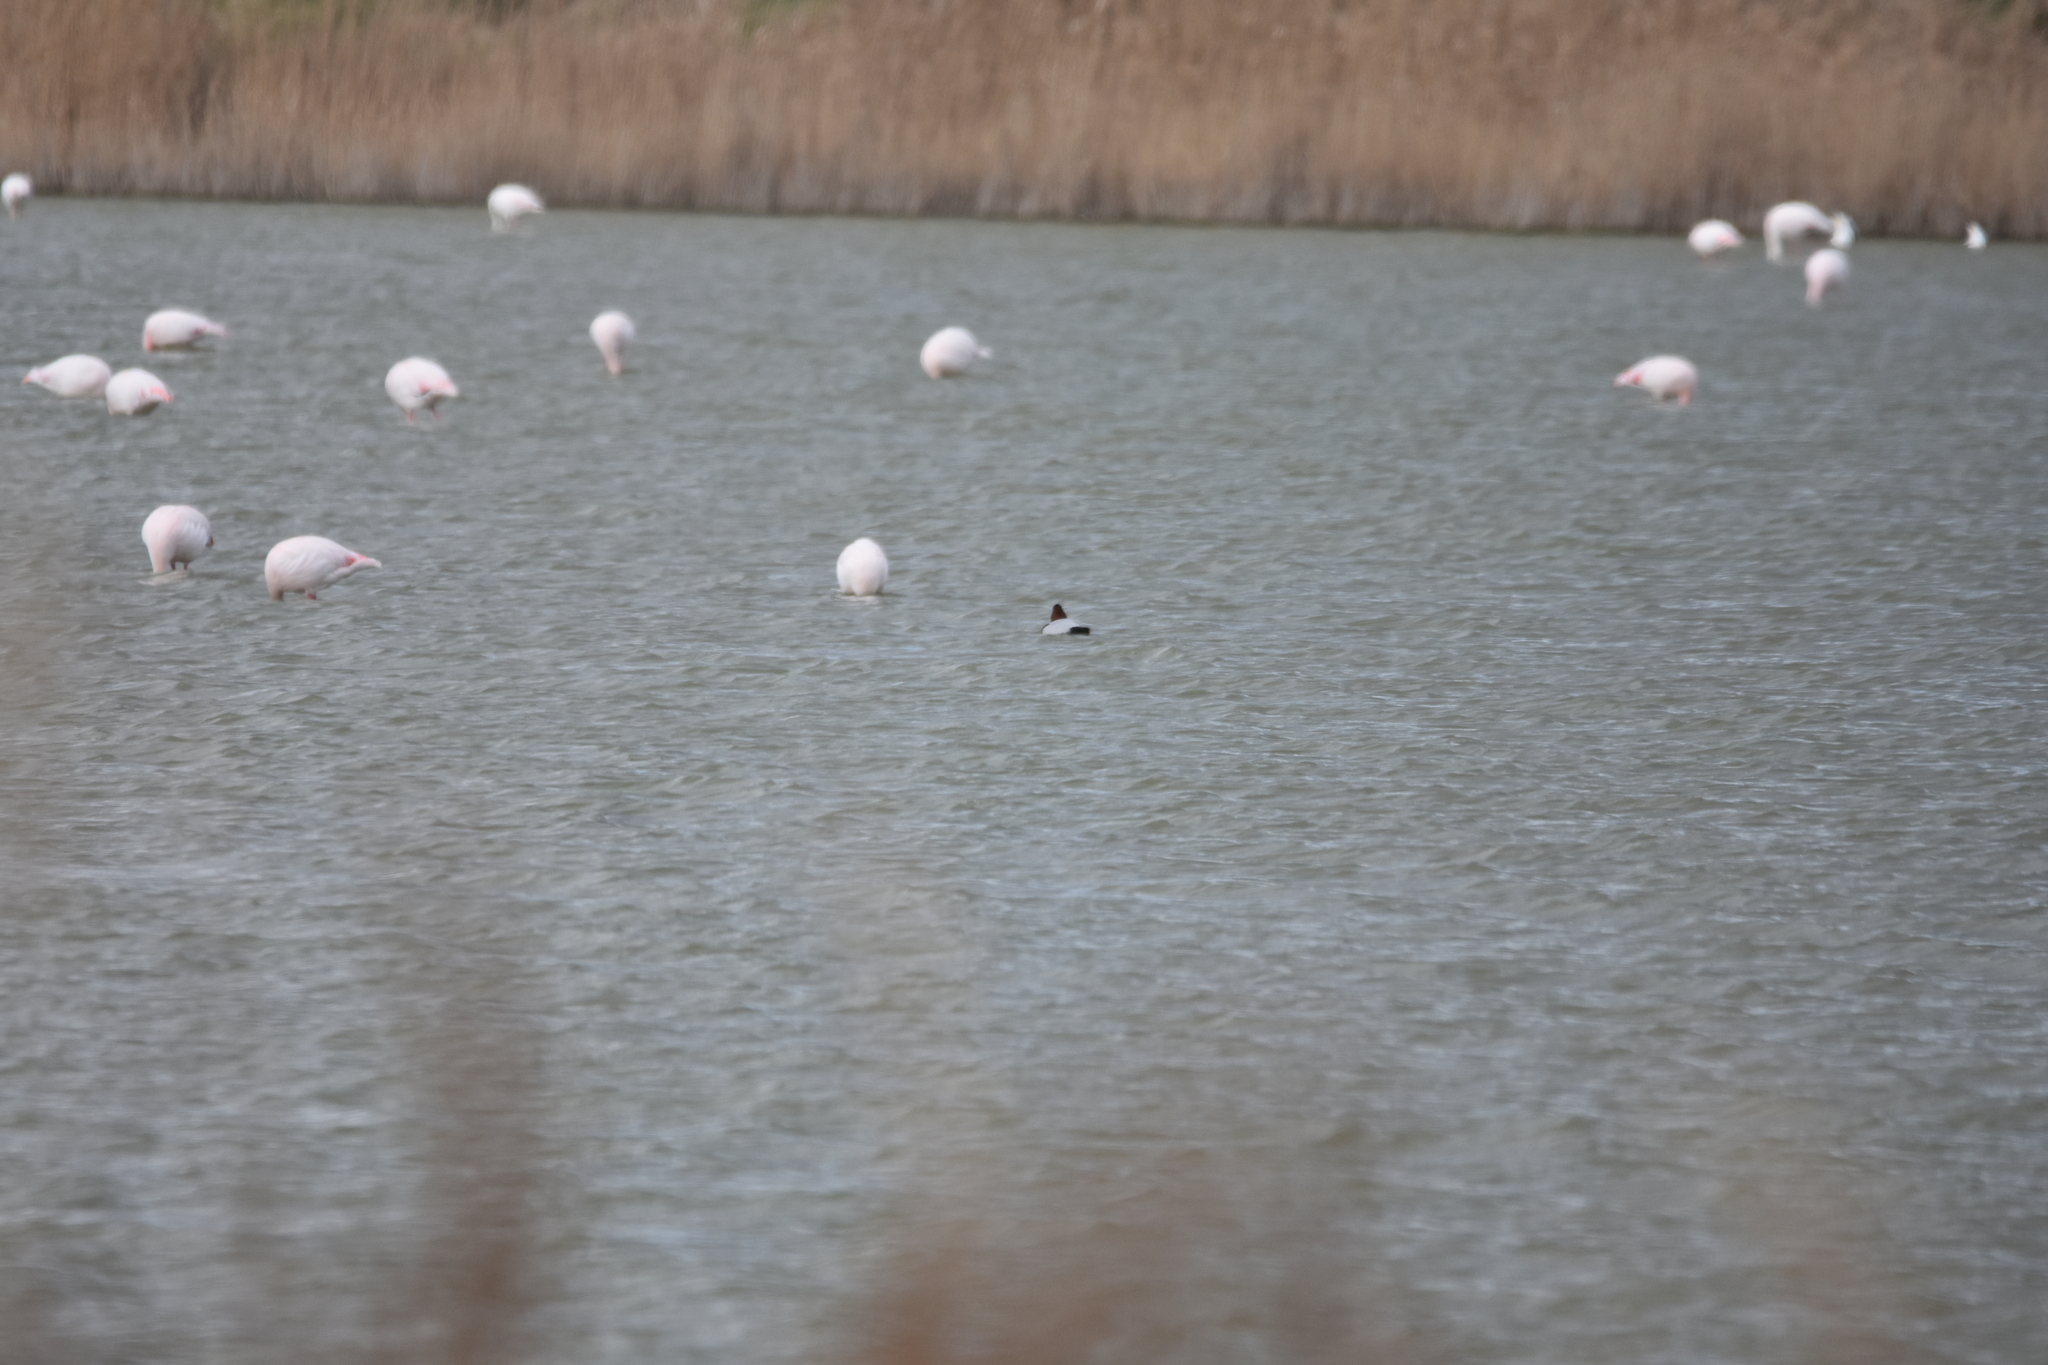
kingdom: Animalia
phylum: Chordata
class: Aves
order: Anseriformes
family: Anatidae
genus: Aythya
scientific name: Aythya ferina
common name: Common pochard
